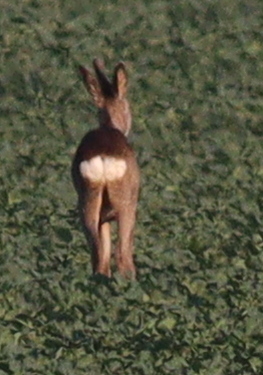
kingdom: Animalia
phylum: Chordata
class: Mammalia
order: Artiodactyla
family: Cervidae
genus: Capreolus
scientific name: Capreolus capreolus
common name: Western roe deer
